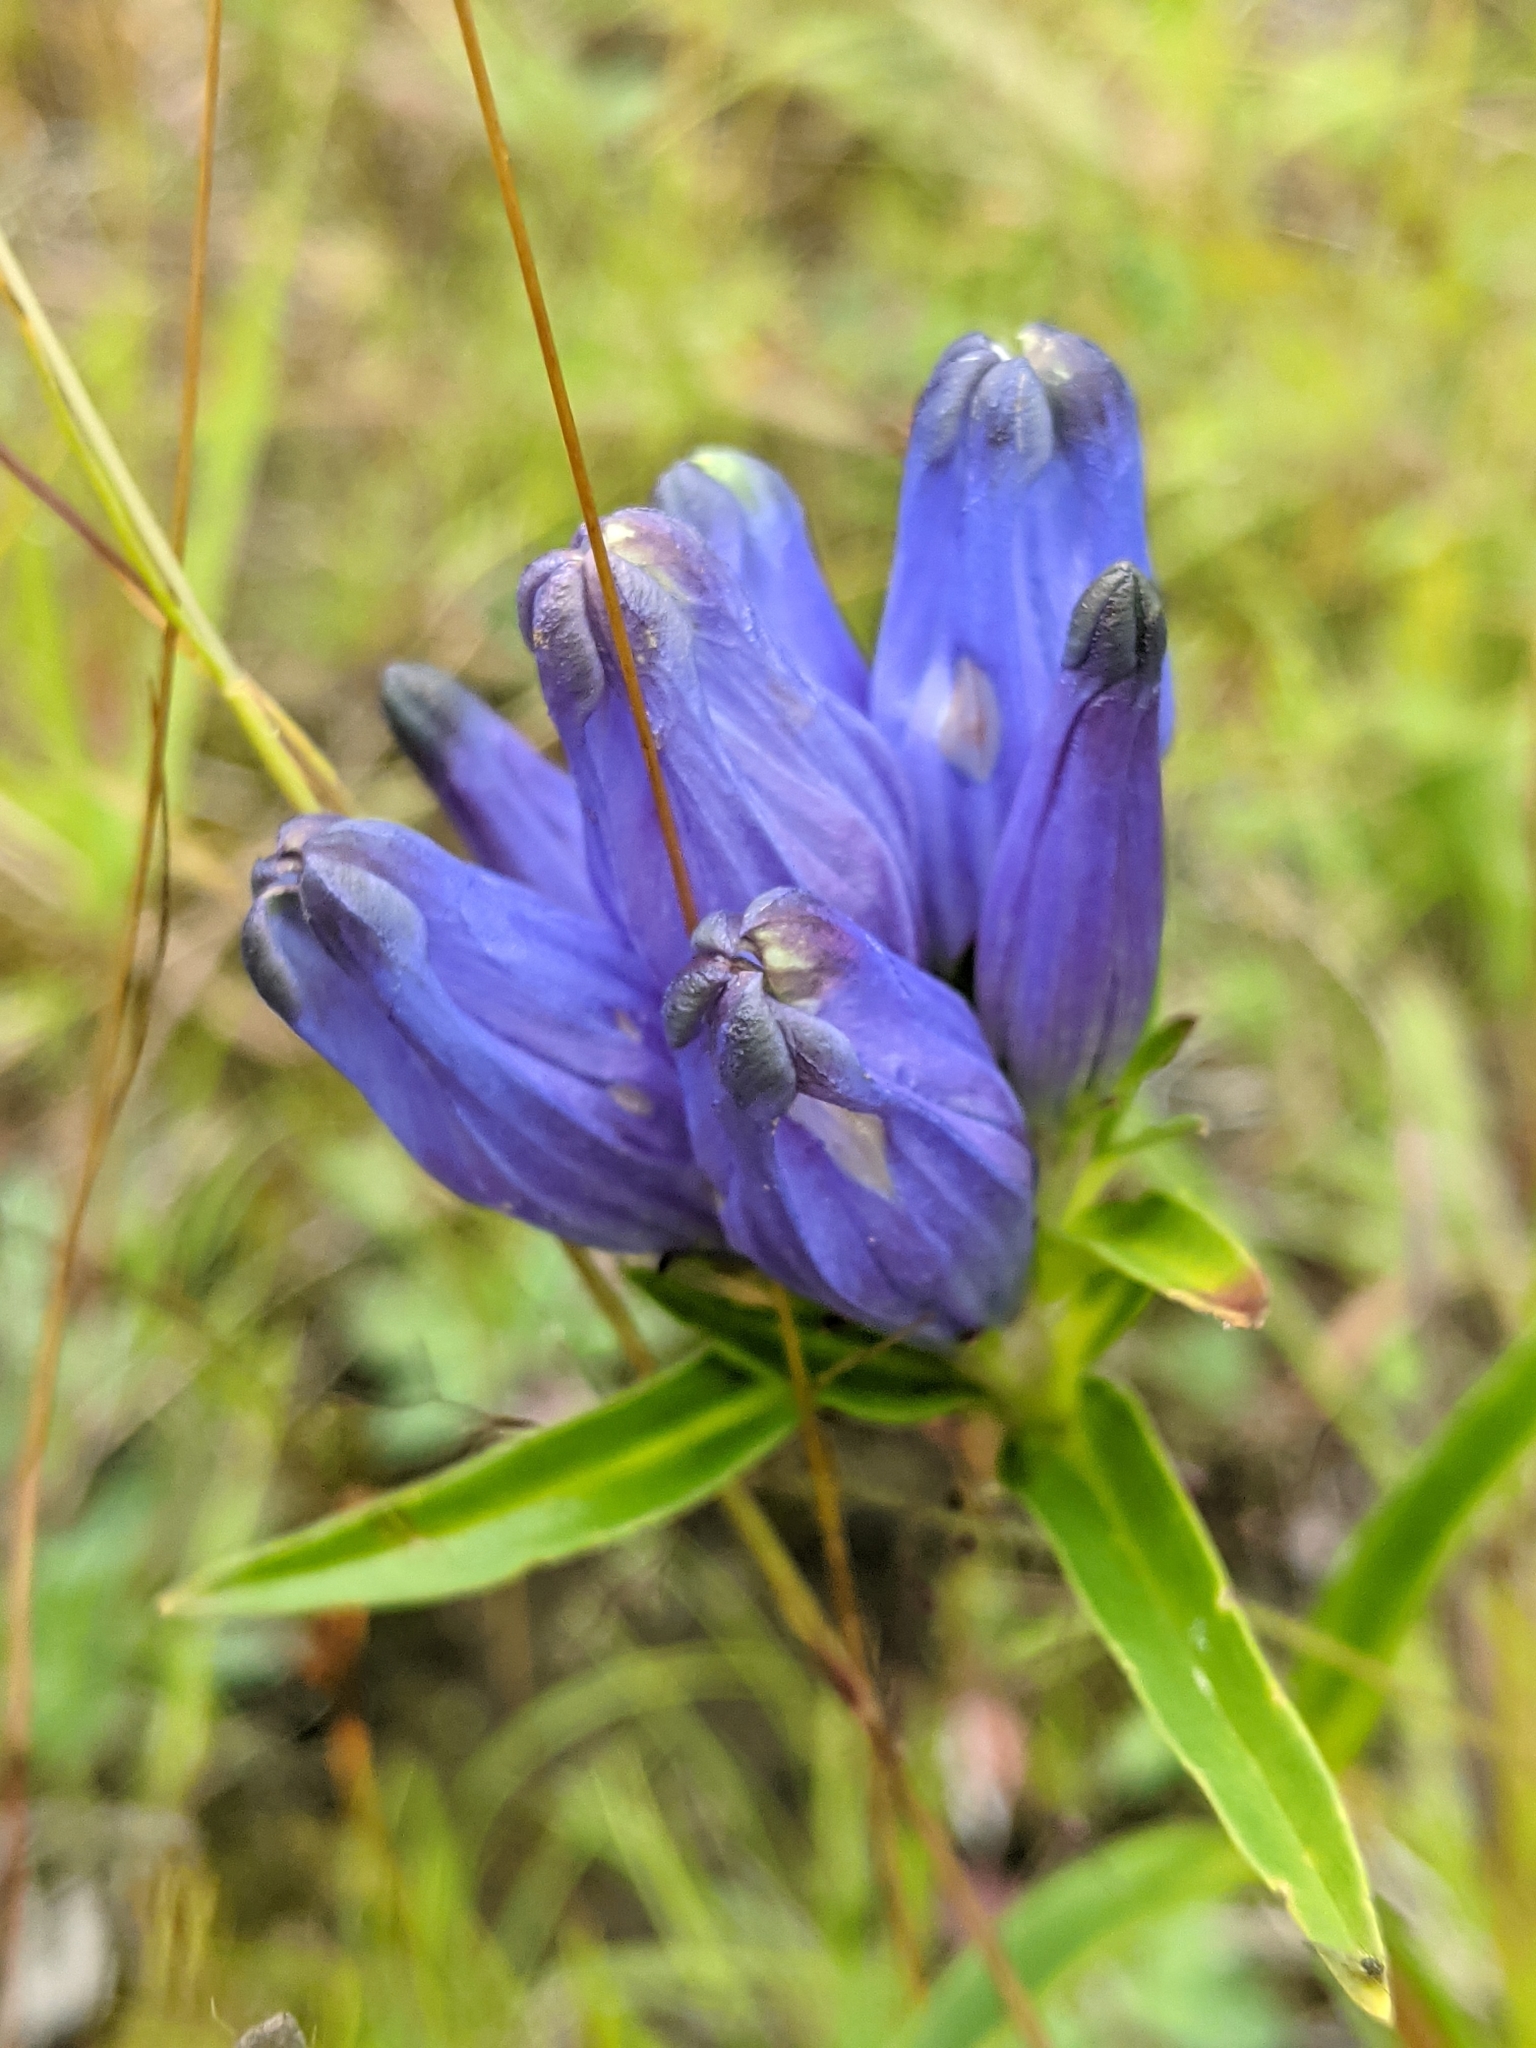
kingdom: Plantae
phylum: Tracheophyta
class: Magnoliopsida
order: Gentianales
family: Gentianaceae
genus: Gentiana
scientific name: Gentiana linearis
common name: Bastard gentian
